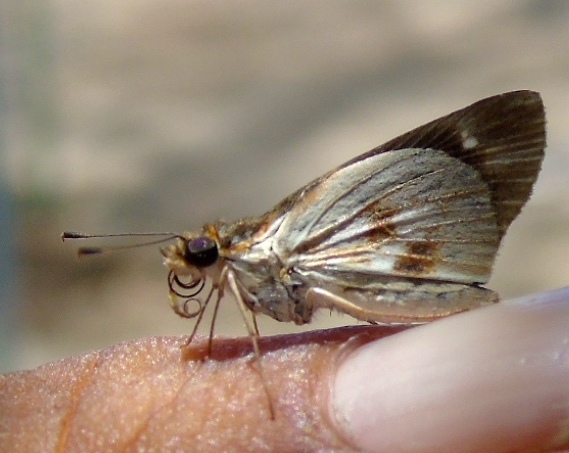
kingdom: Animalia
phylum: Arthropoda
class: Insecta
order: Lepidoptera
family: Hesperiidae
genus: Troyus
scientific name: Troyus fantasos
